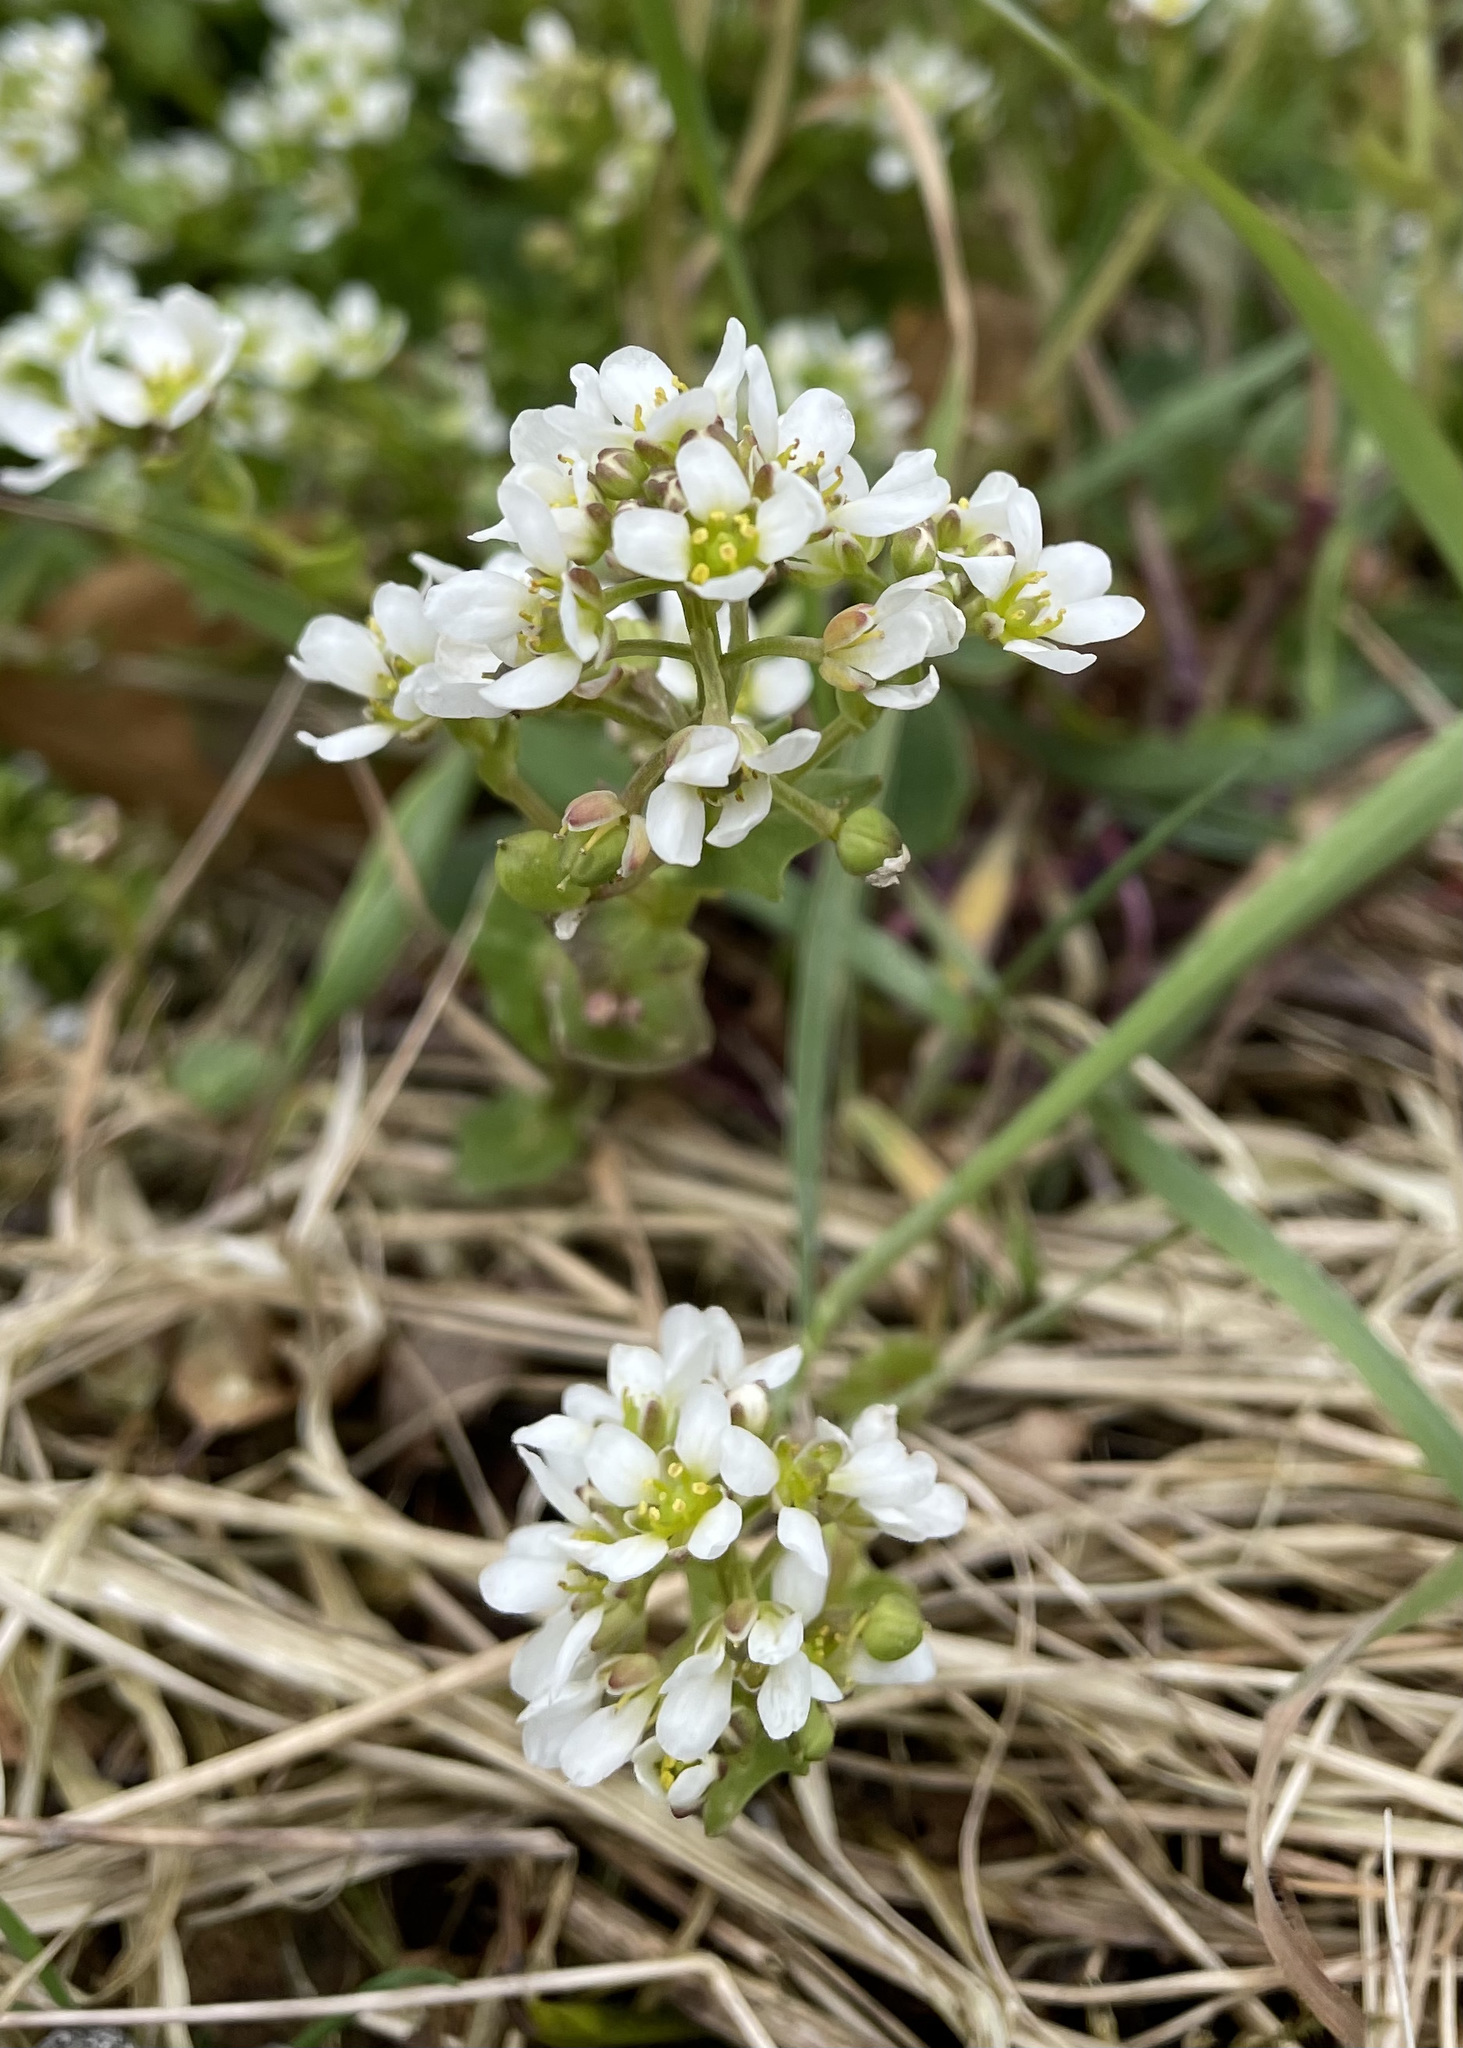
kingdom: Plantae
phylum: Tracheophyta
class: Magnoliopsida
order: Brassicales
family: Brassicaceae
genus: Cochlearia
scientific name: Cochlearia officinalis
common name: Scurvy-grass
